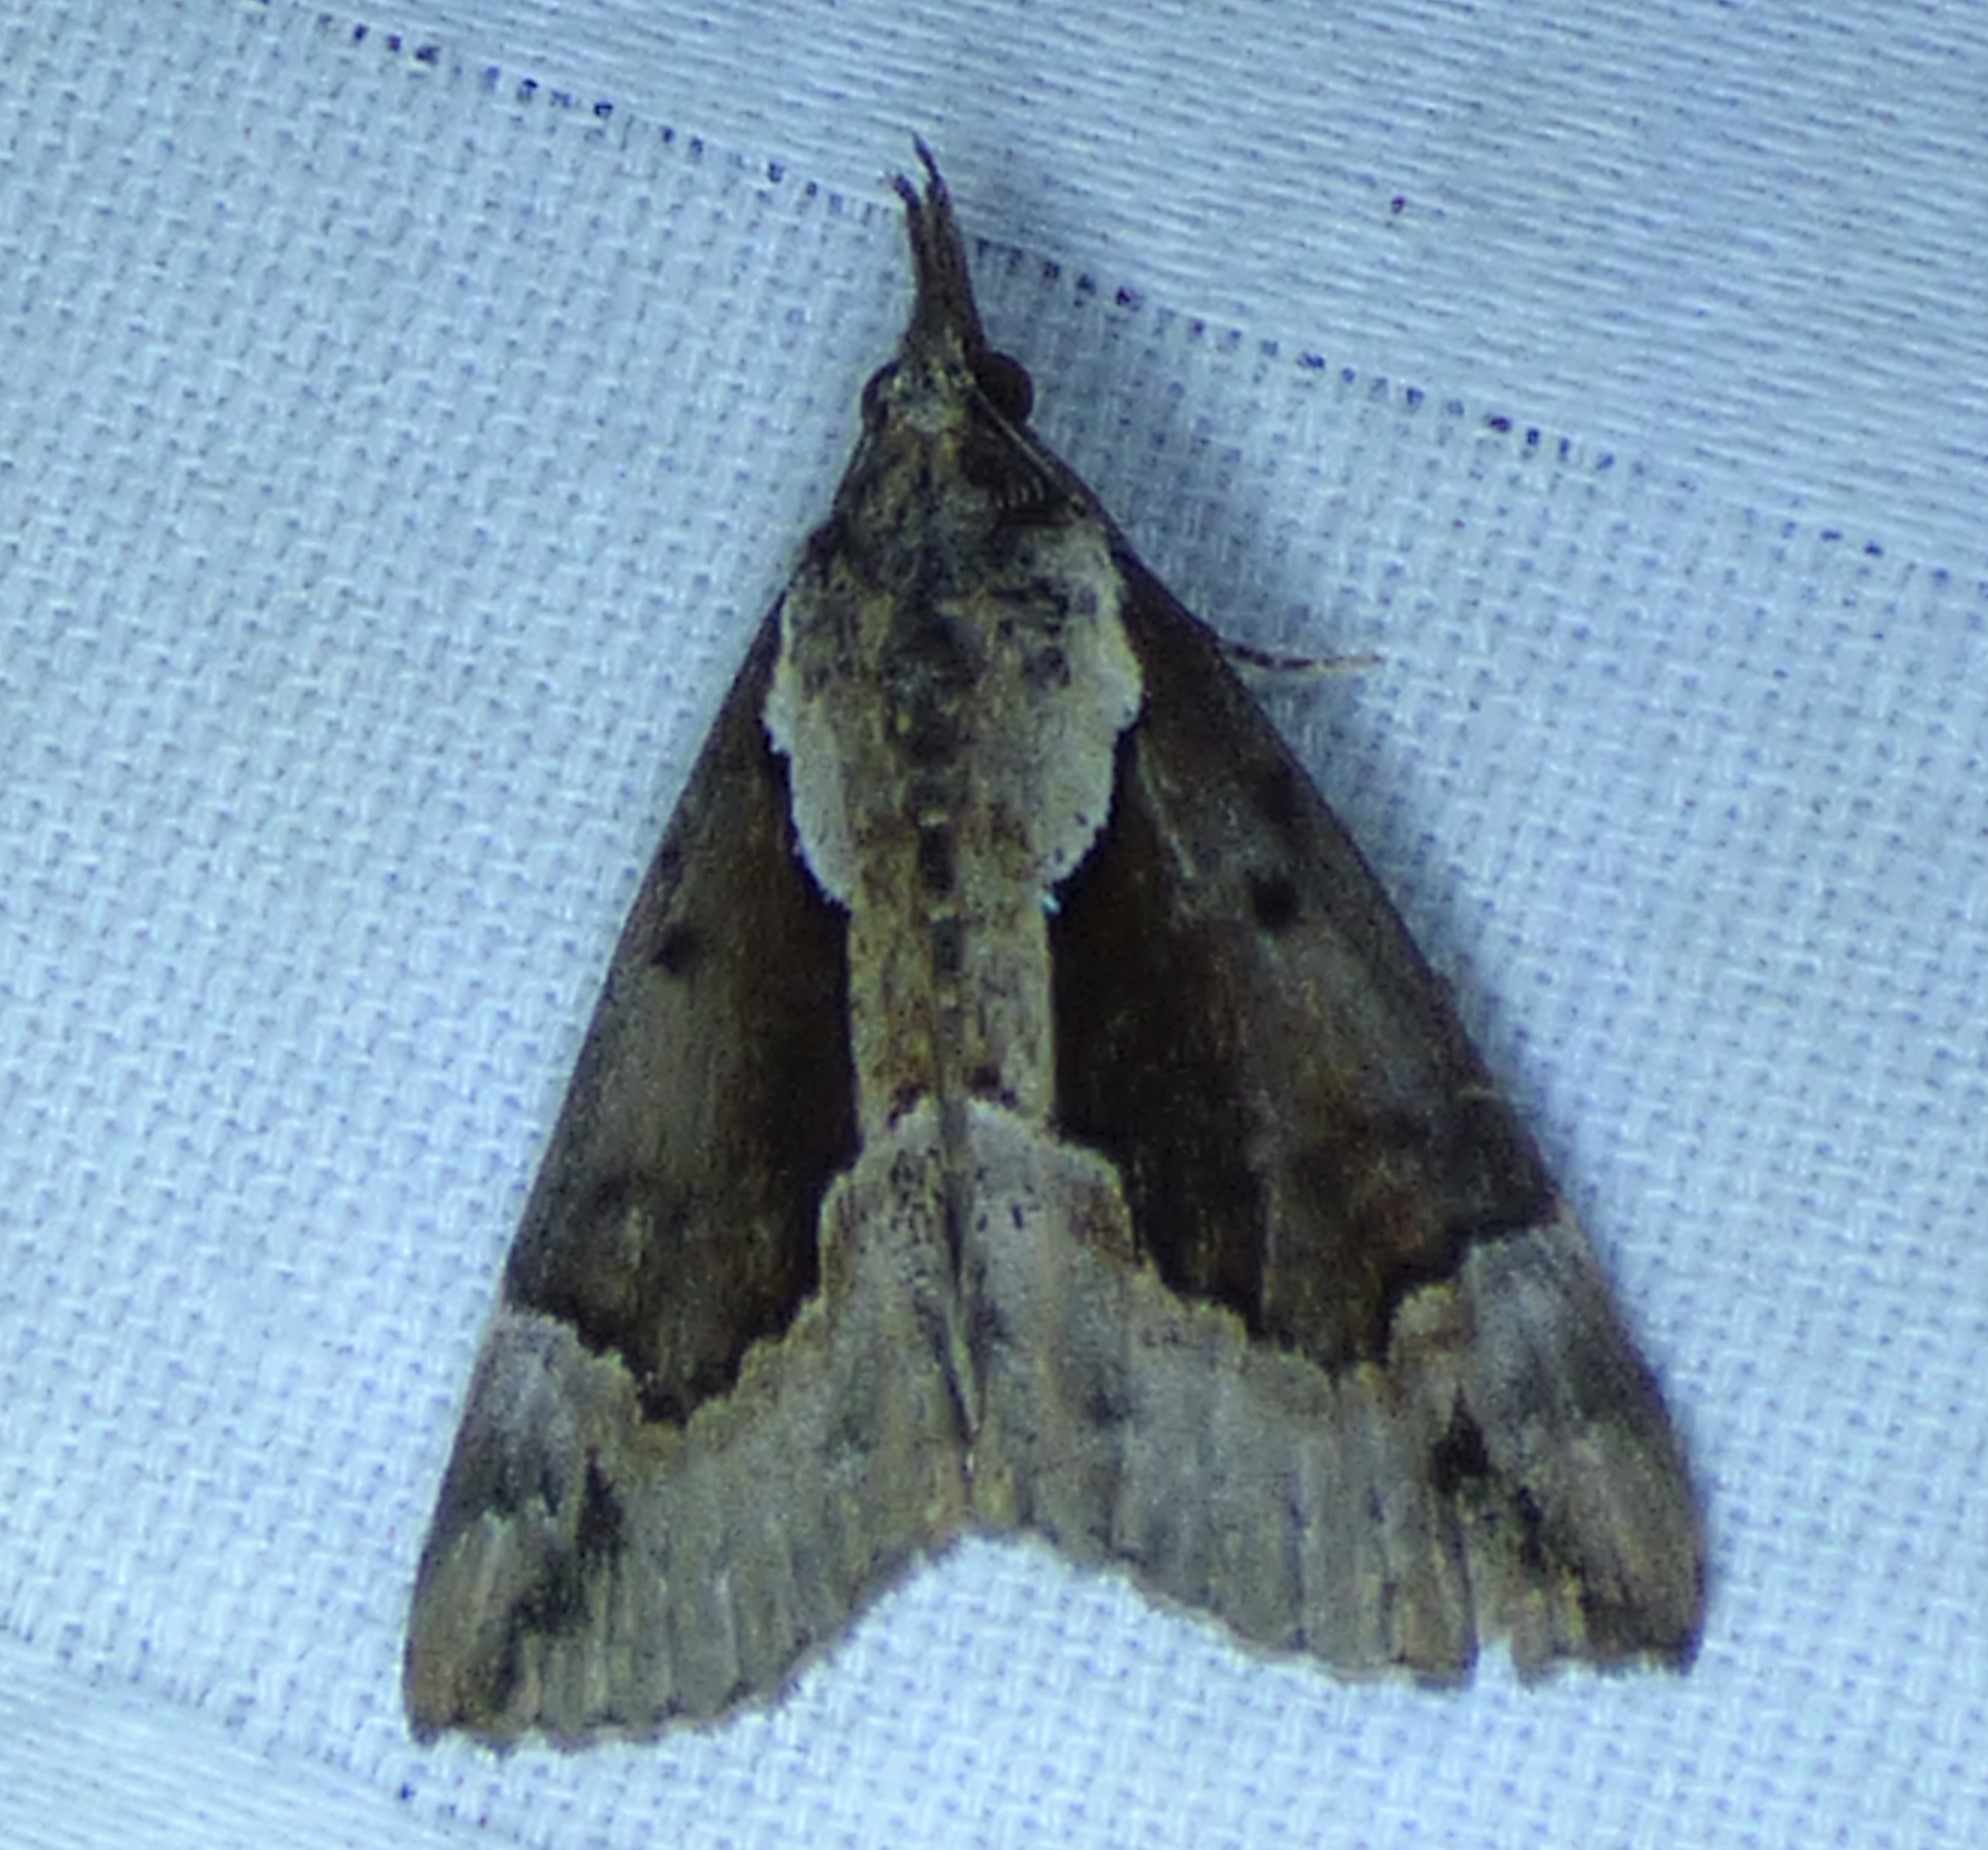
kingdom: Animalia
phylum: Arthropoda
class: Insecta
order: Lepidoptera
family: Erebidae
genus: Hypena
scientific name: Hypena baltimoralis
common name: Baltimore snout
